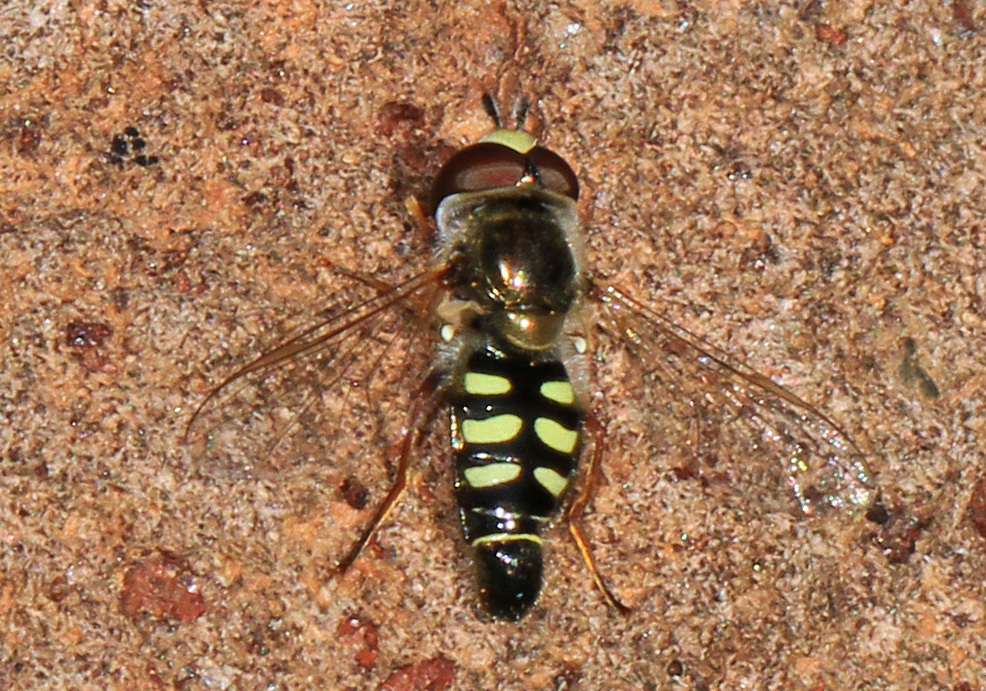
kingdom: Animalia
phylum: Arthropoda
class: Insecta
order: Diptera
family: Syrphidae
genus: Eupeodes
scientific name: Eupeodes volucris
